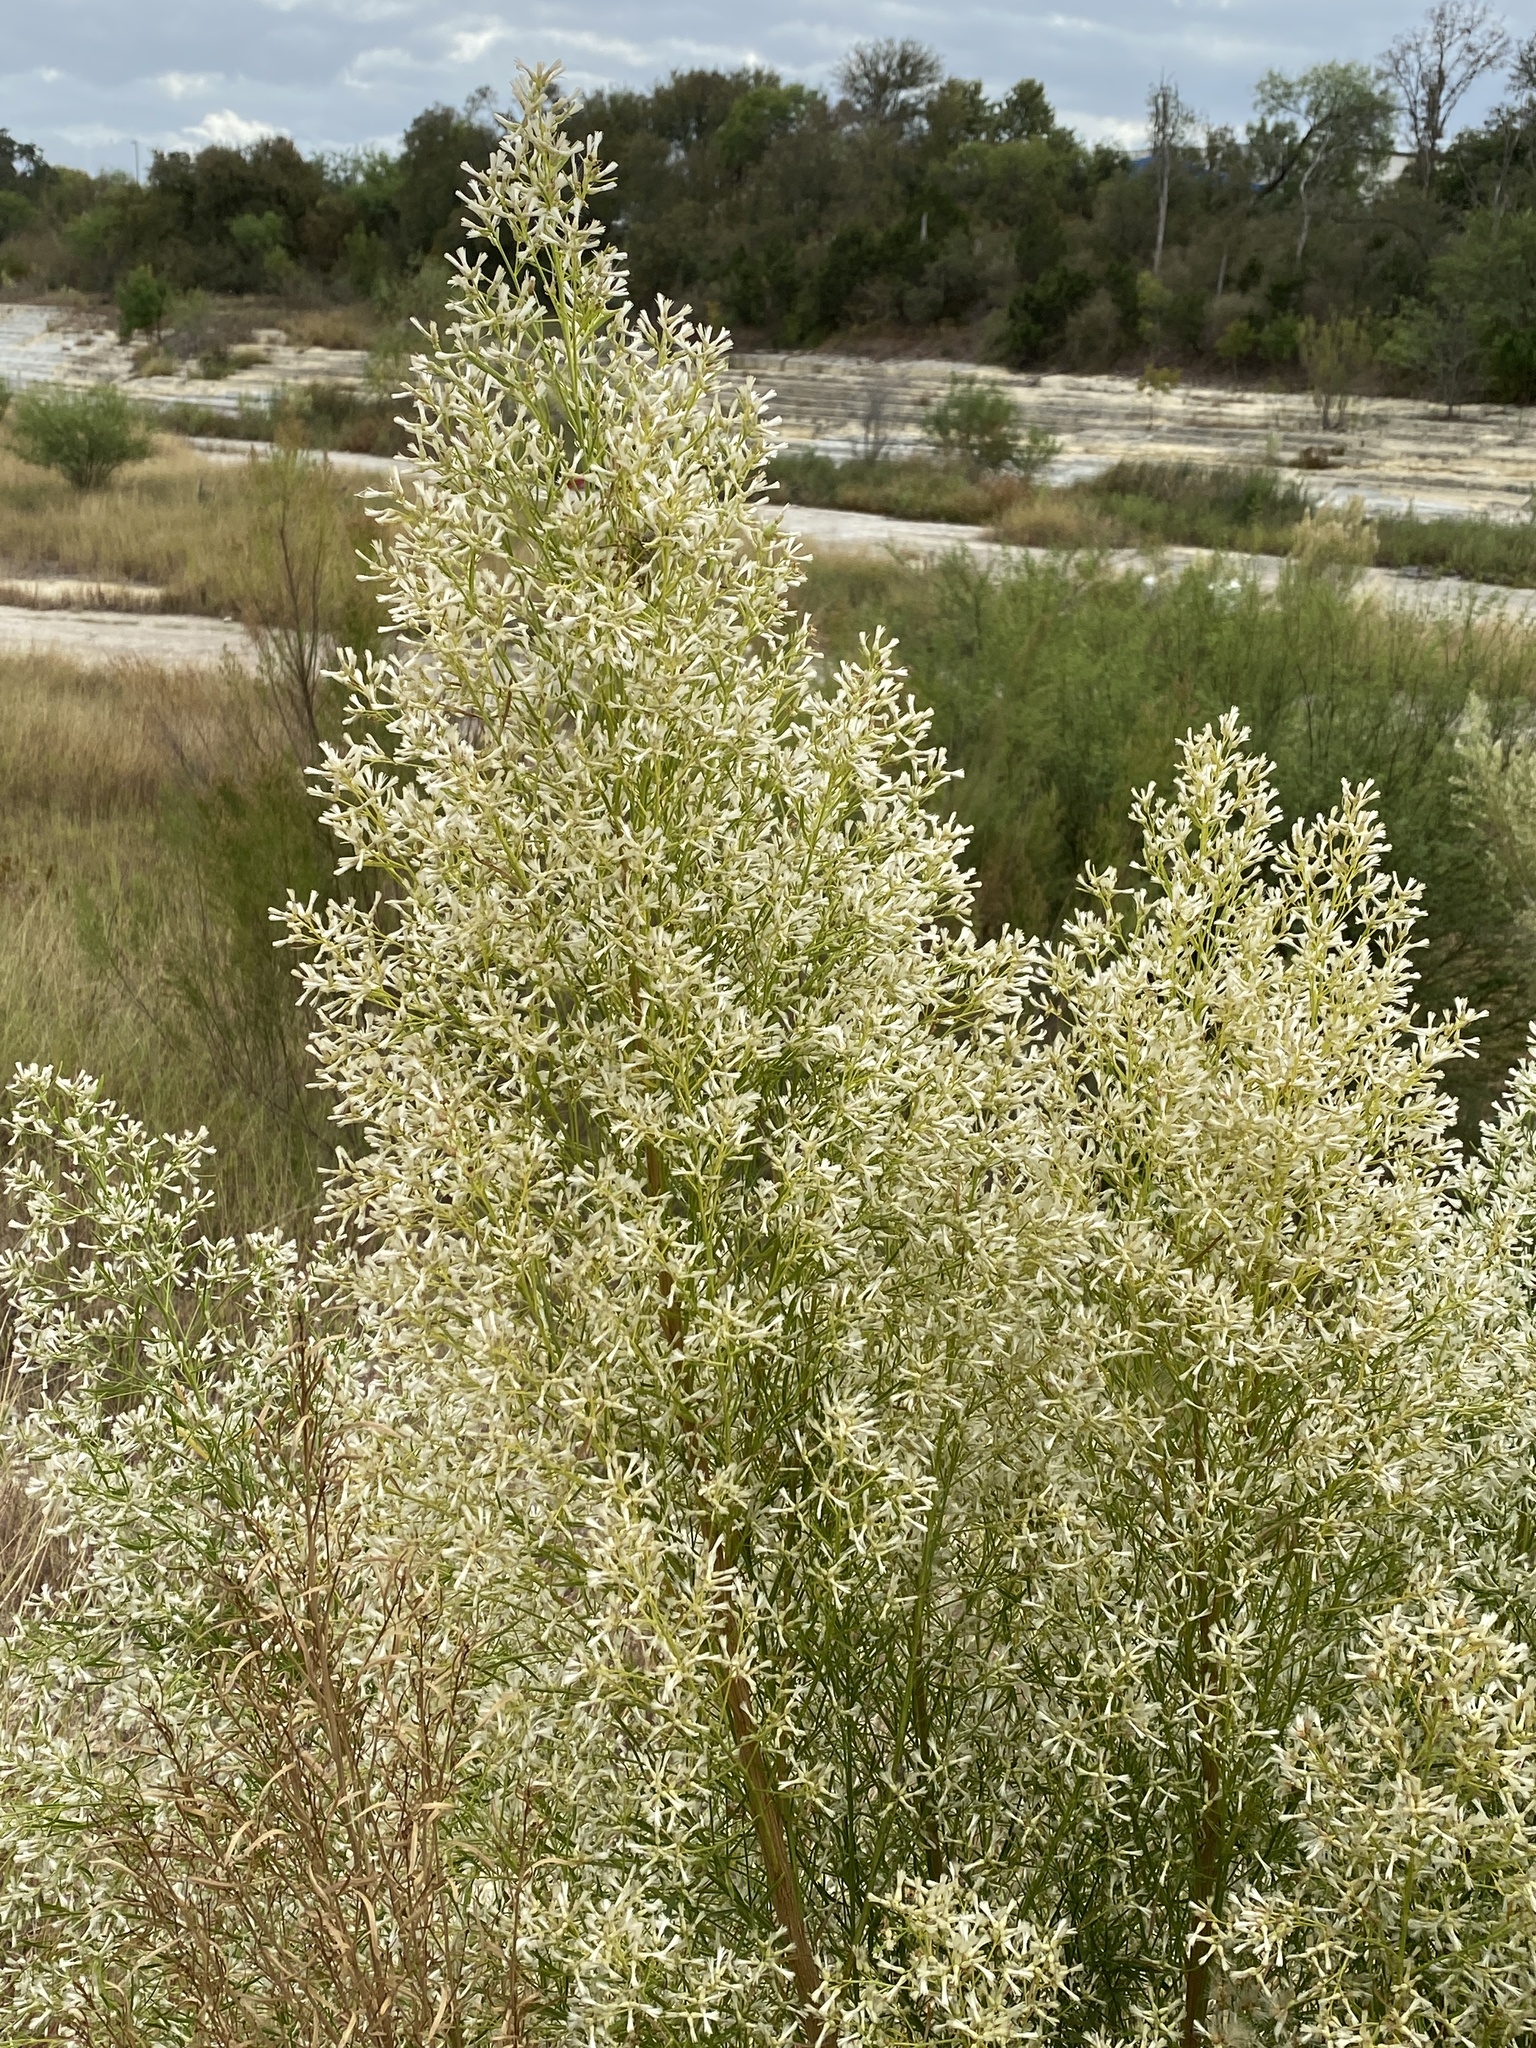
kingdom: Plantae
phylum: Tracheophyta
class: Magnoliopsida
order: Asterales
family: Asteraceae
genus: Baccharis
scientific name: Baccharis neglecta
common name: Roosevelt-weed
